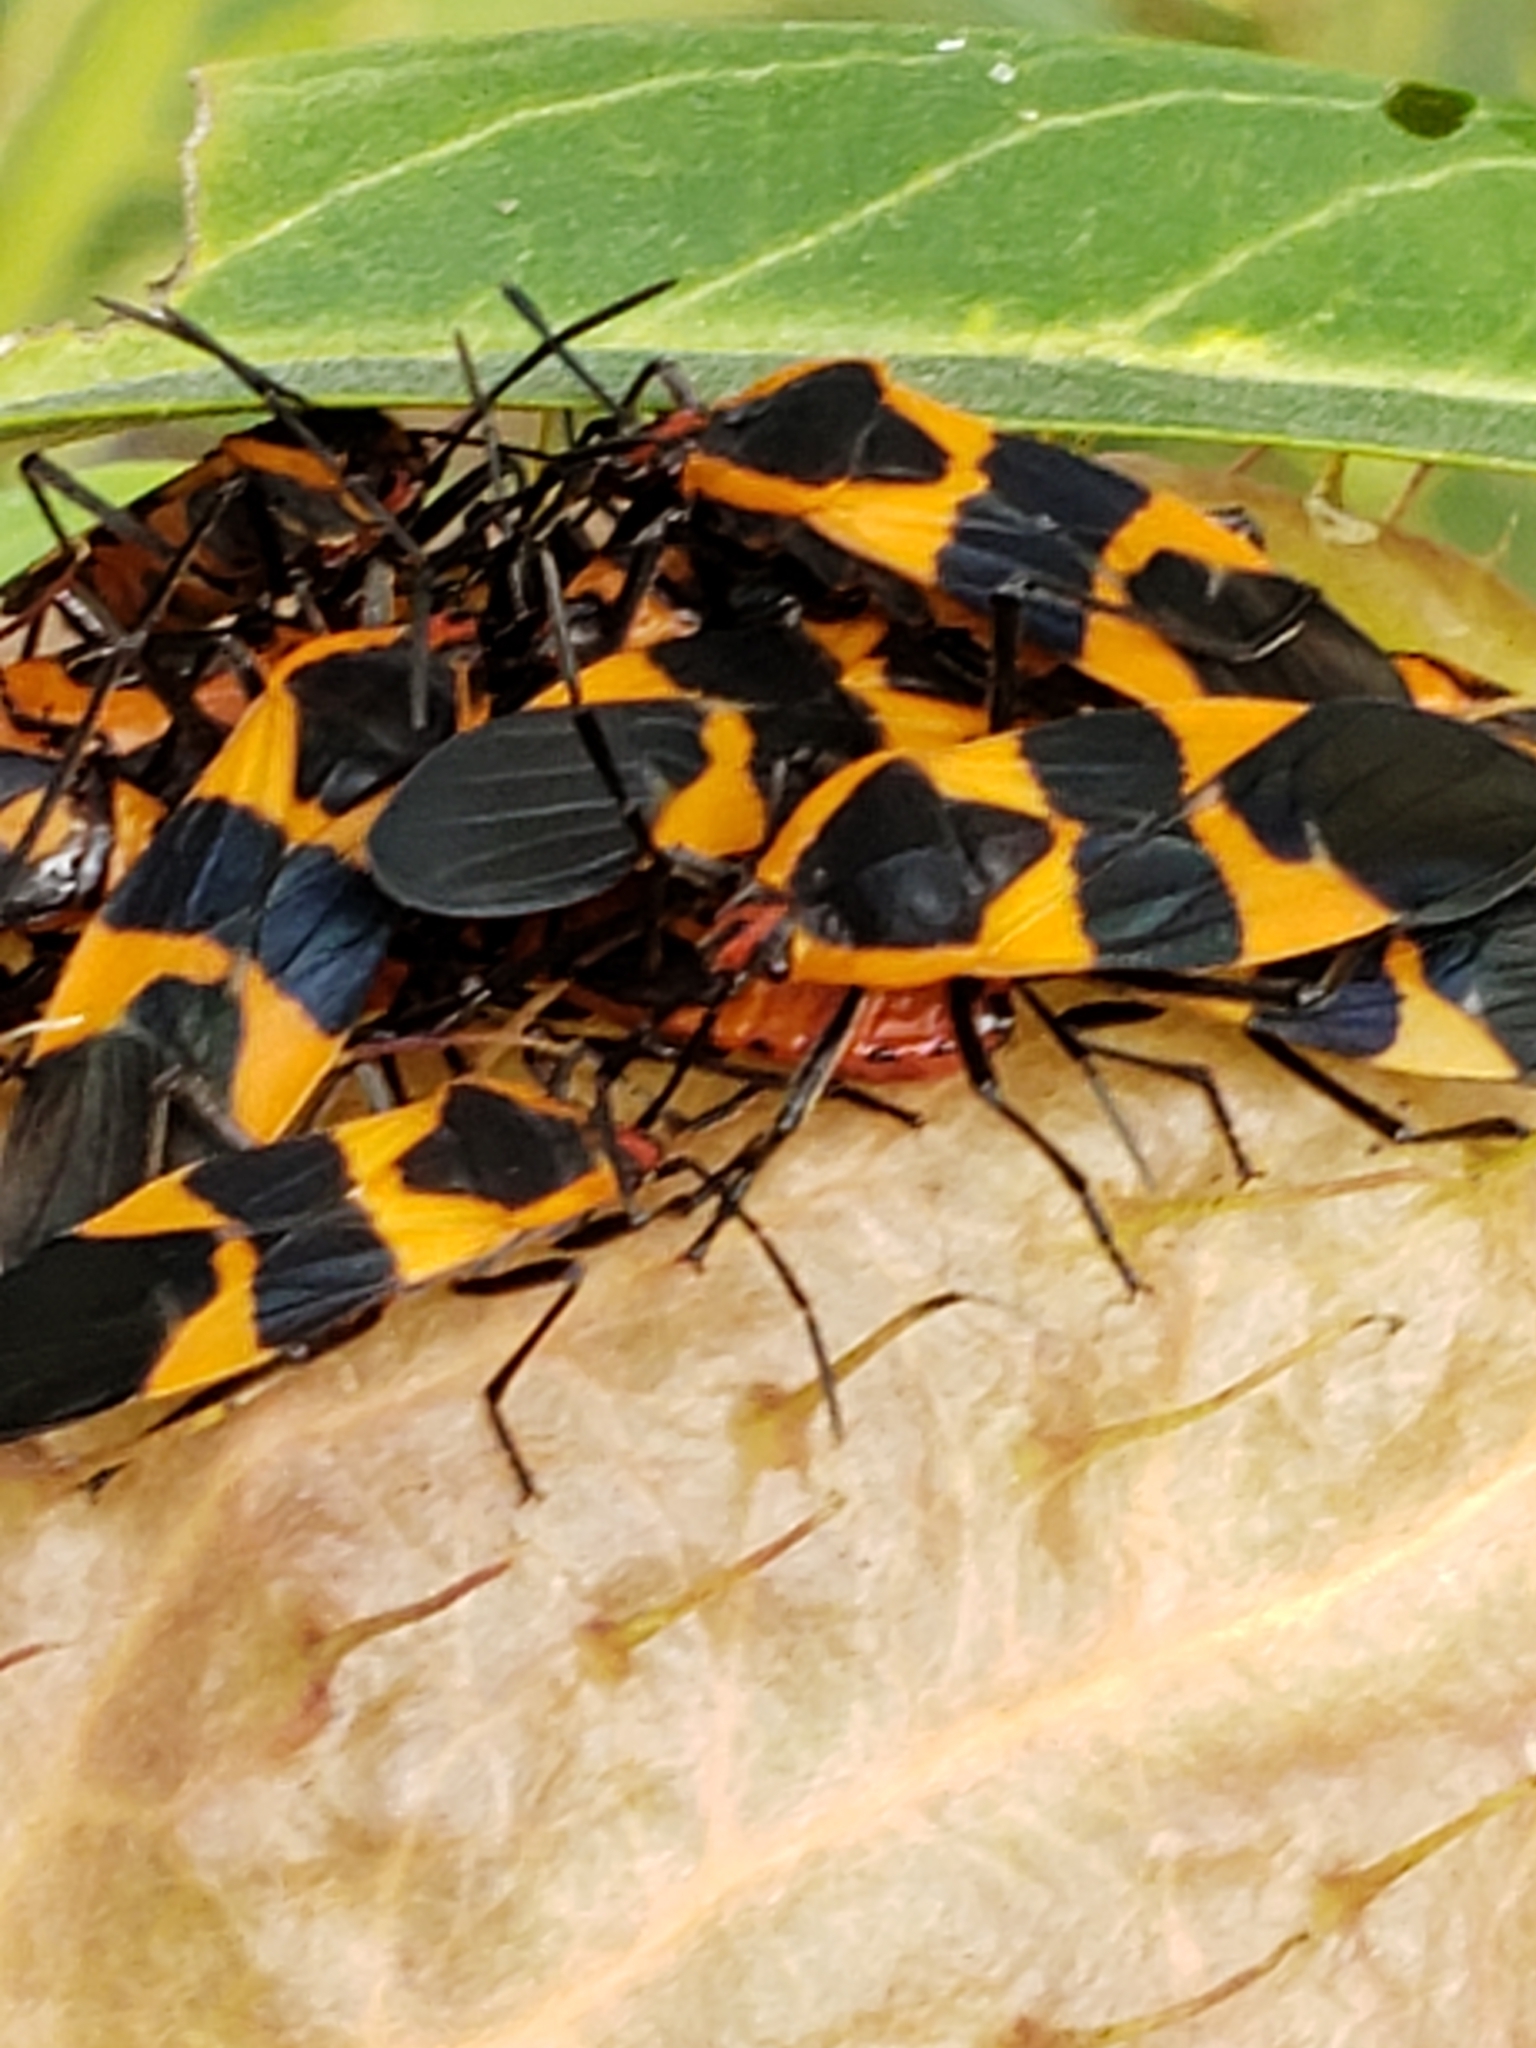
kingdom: Animalia
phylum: Arthropoda
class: Insecta
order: Hemiptera
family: Lygaeidae
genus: Oncopeltus
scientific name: Oncopeltus fasciatus
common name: Large milkweed bug
